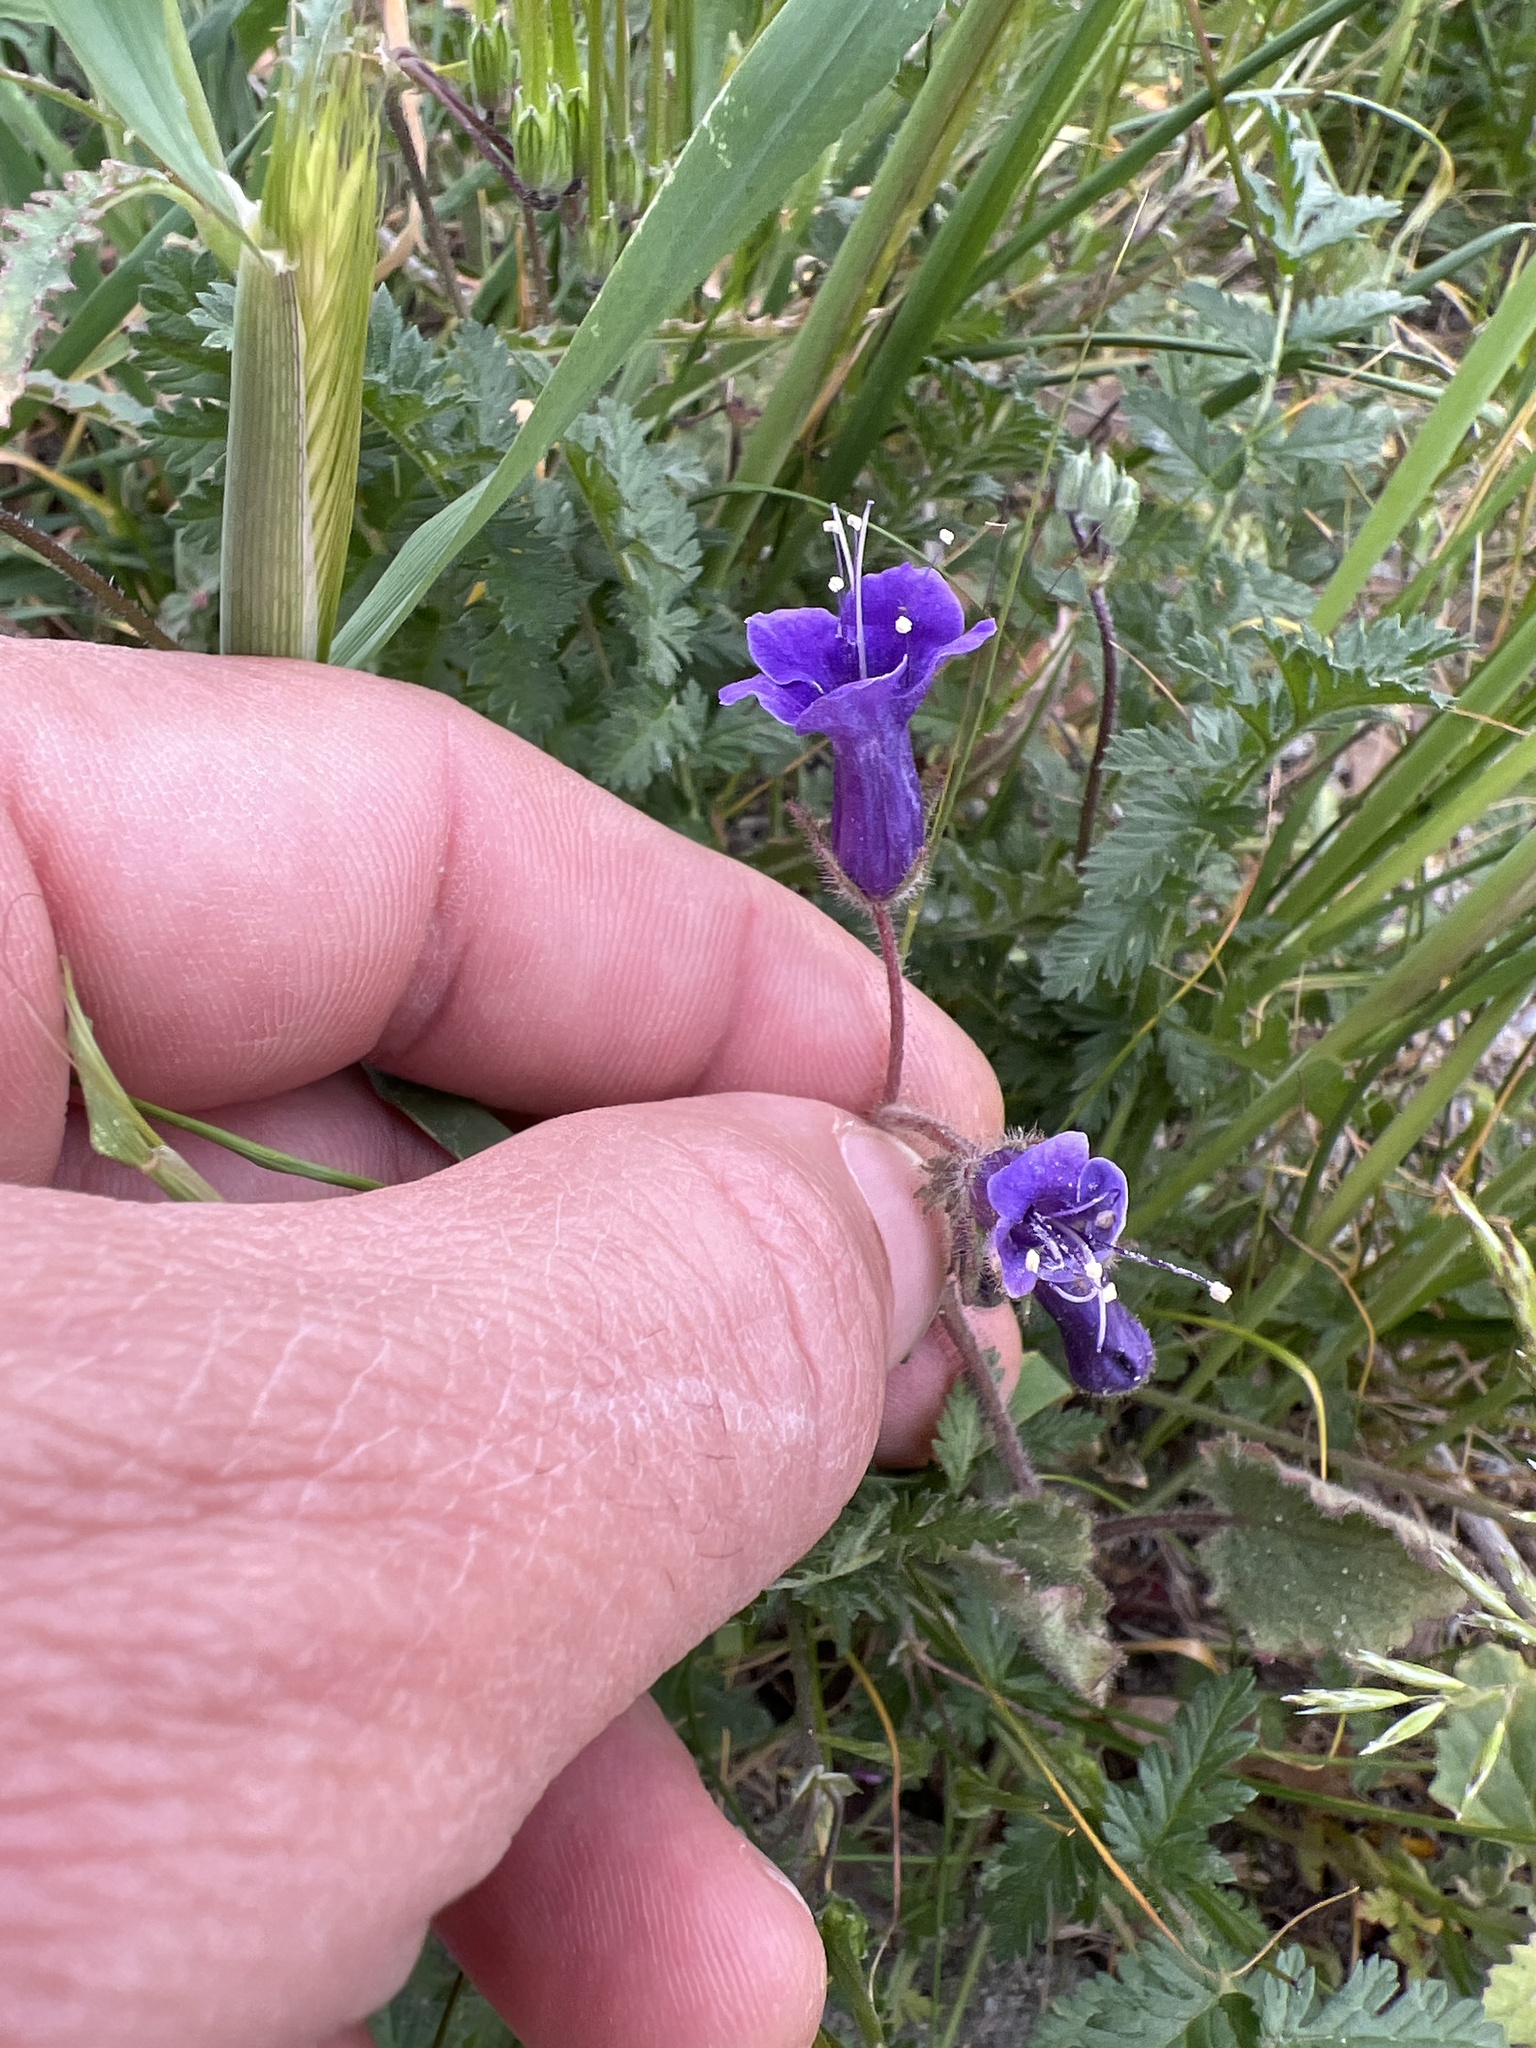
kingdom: Plantae
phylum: Tracheophyta
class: Magnoliopsida
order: Boraginales
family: Hydrophyllaceae
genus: Phacelia
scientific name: Phacelia minor
